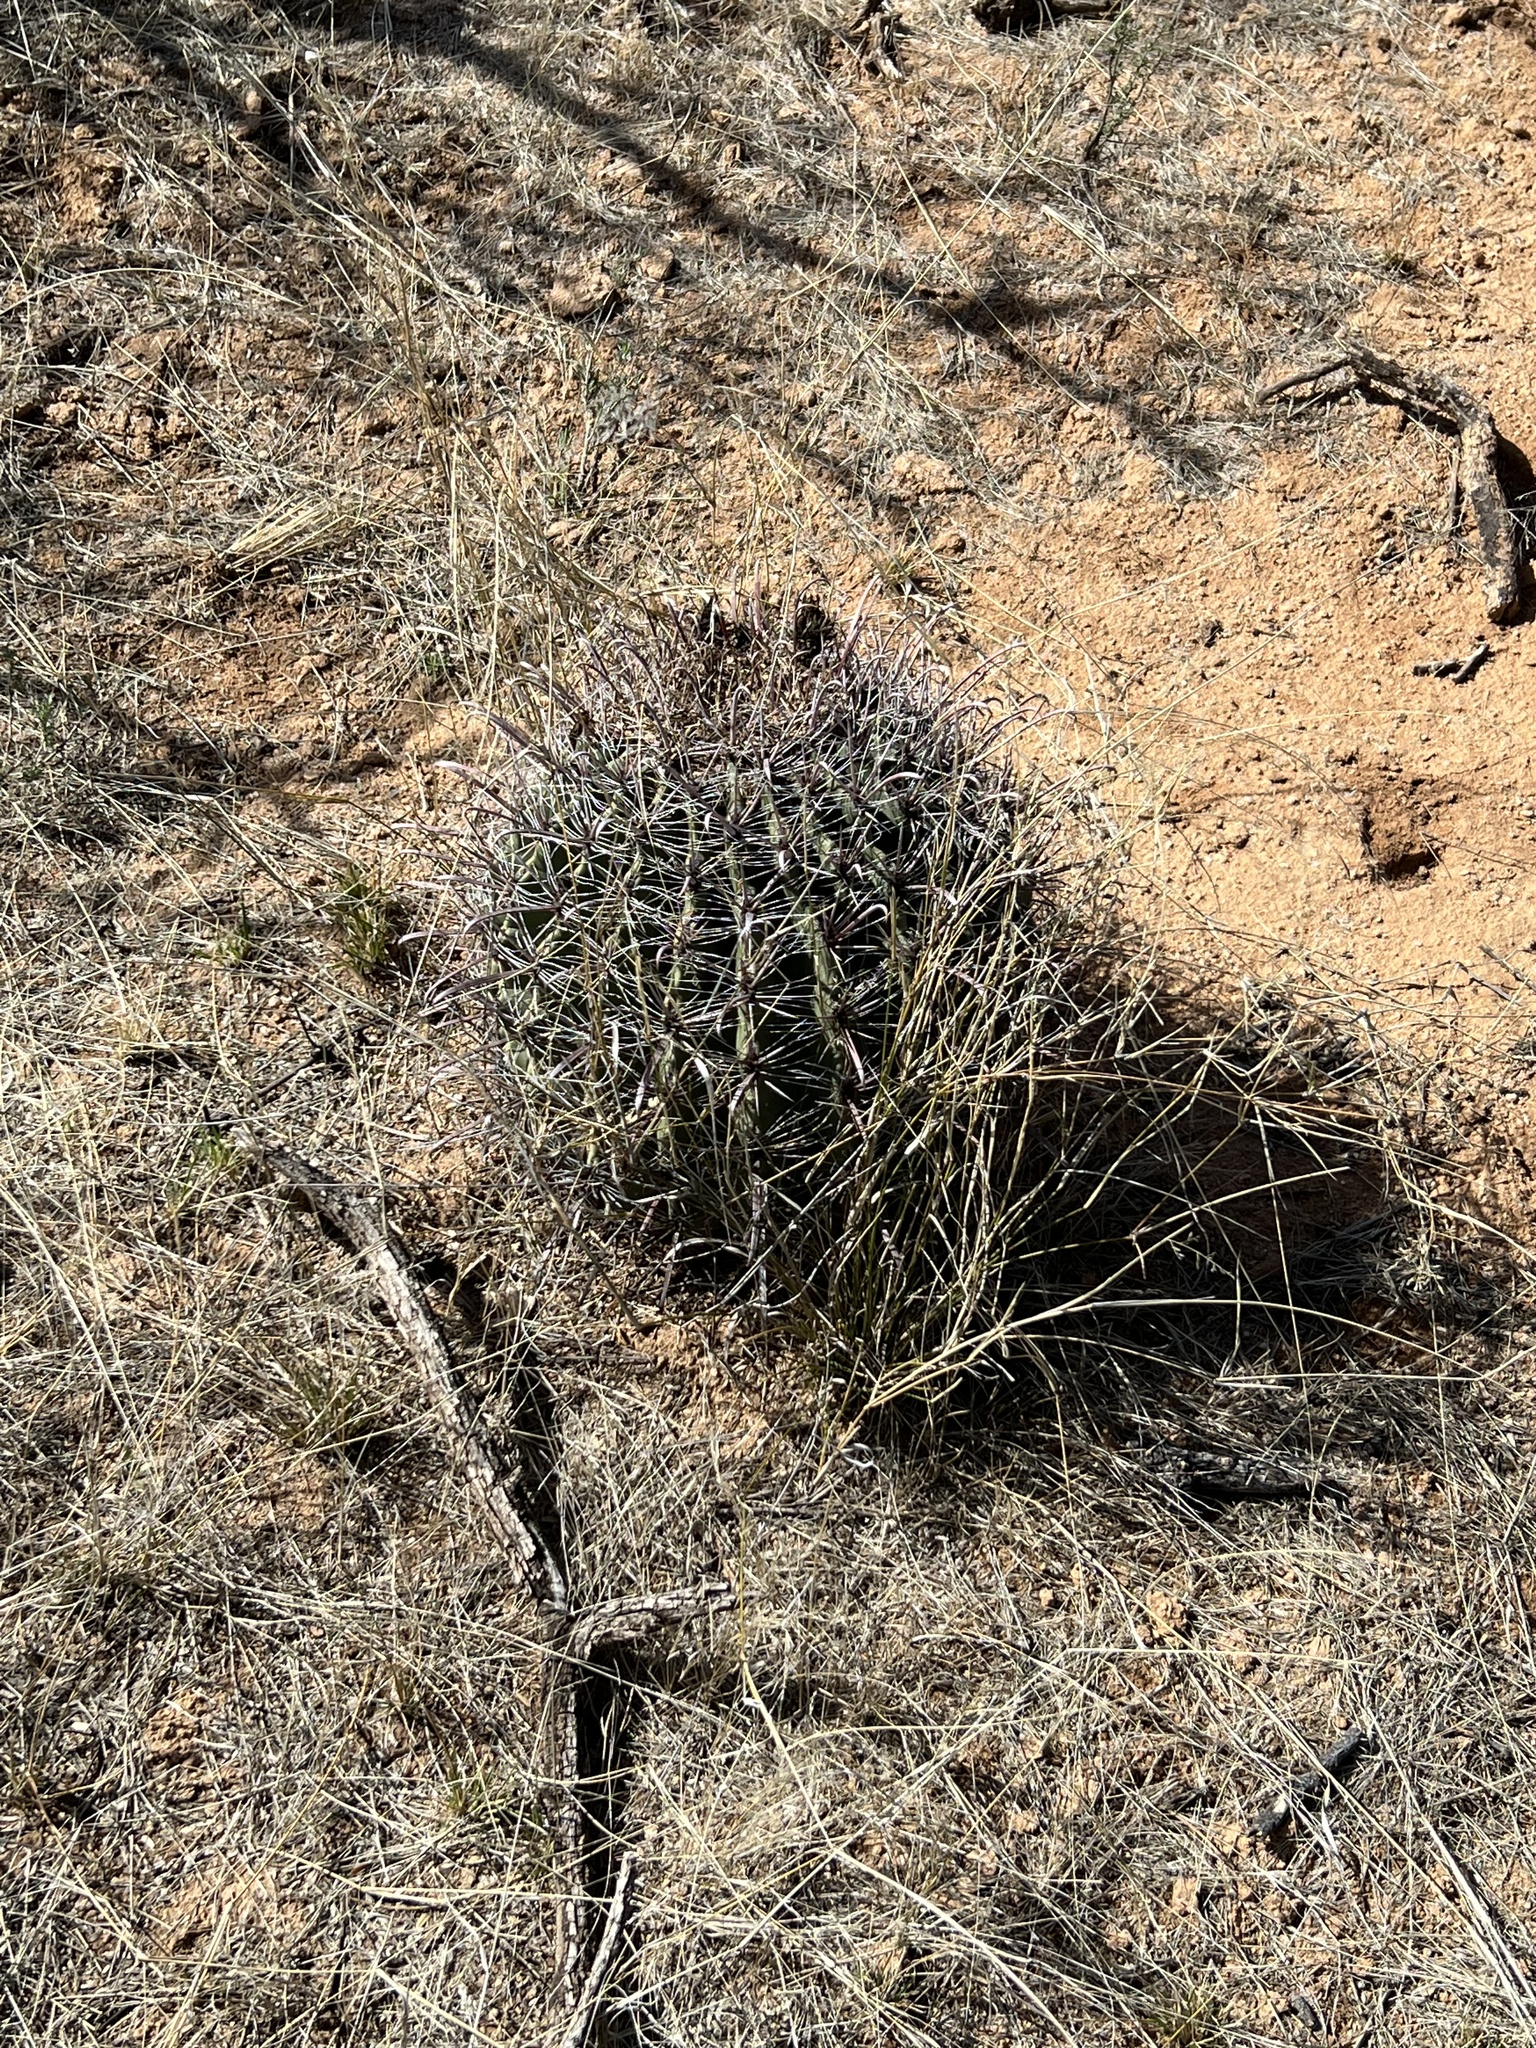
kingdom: Plantae
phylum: Tracheophyta
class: Magnoliopsida
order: Caryophyllales
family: Cactaceae
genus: Ferocactus
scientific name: Ferocactus wislizeni
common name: Candy barrel cactus
